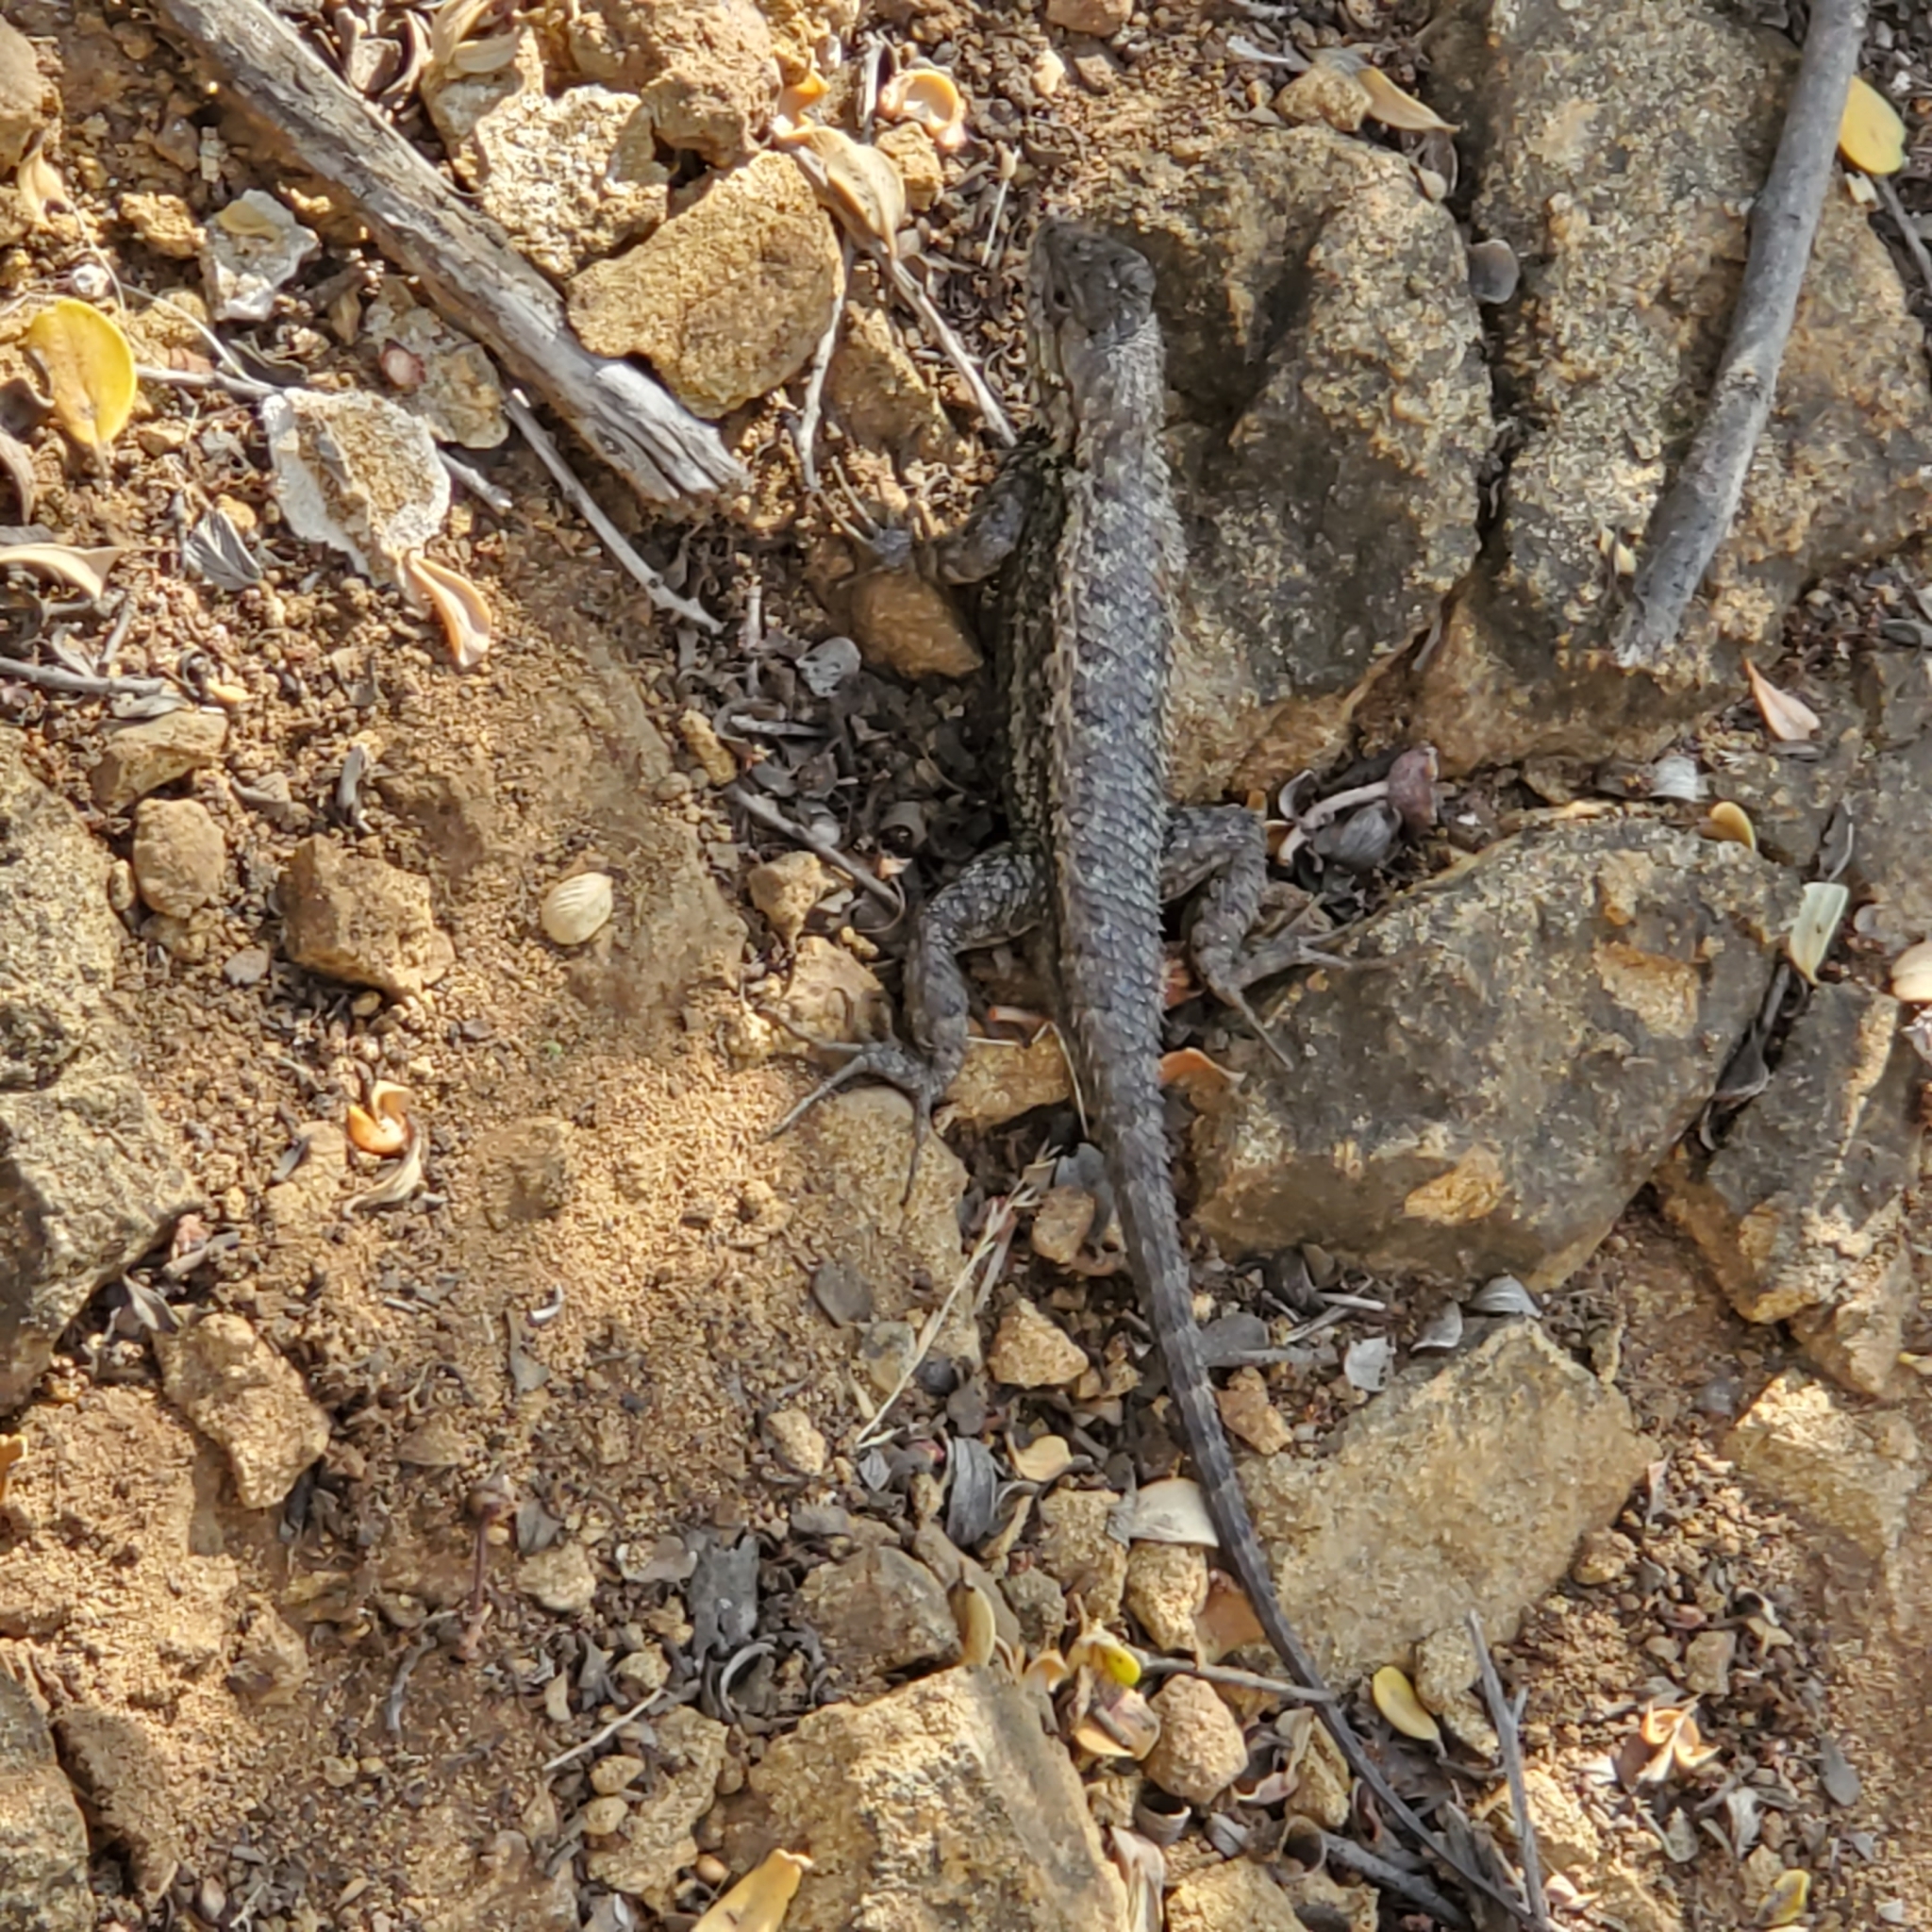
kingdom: Animalia
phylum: Chordata
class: Squamata
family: Phrynosomatidae
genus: Sceloporus
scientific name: Sceloporus occidentalis
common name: Western fence lizard
